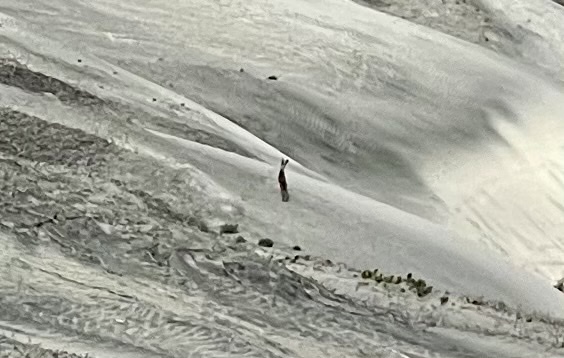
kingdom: Animalia
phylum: Chordata
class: Mammalia
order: Lagomorpha
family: Leporidae
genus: Lepus
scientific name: Lepus californicus
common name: Black-tailed jackrabbit
